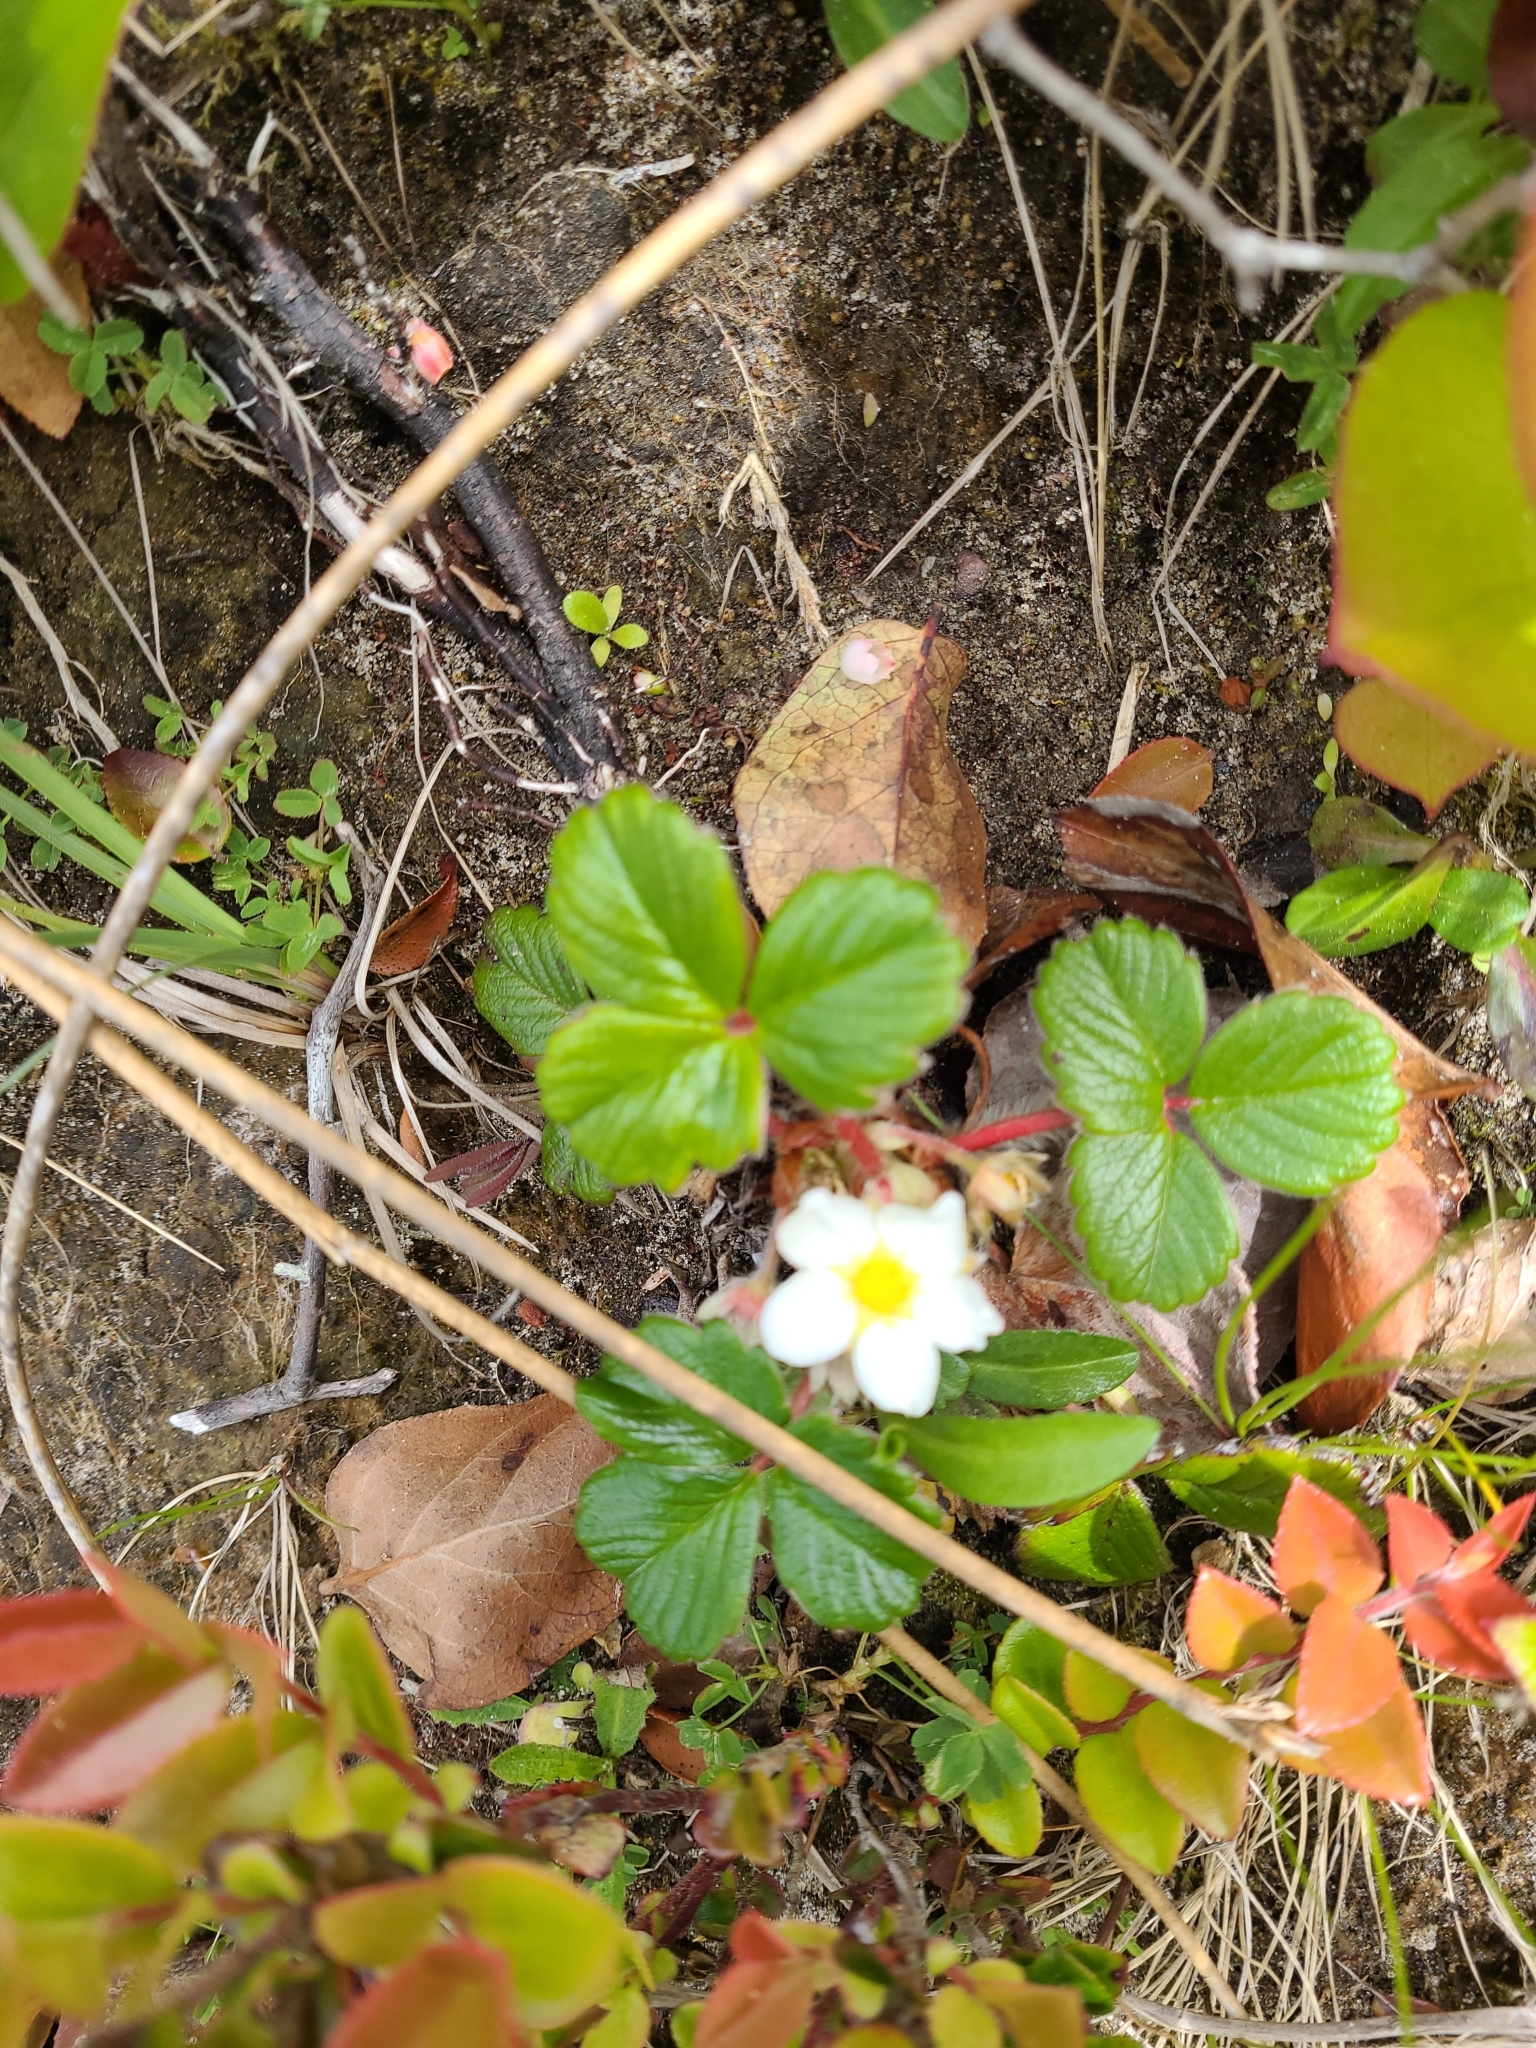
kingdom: Plantae
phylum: Tracheophyta
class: Magnoliopsida
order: Rosales
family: Rosaceae
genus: Fragaria
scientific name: Fragaria chiloensis
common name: Beach strawberry
